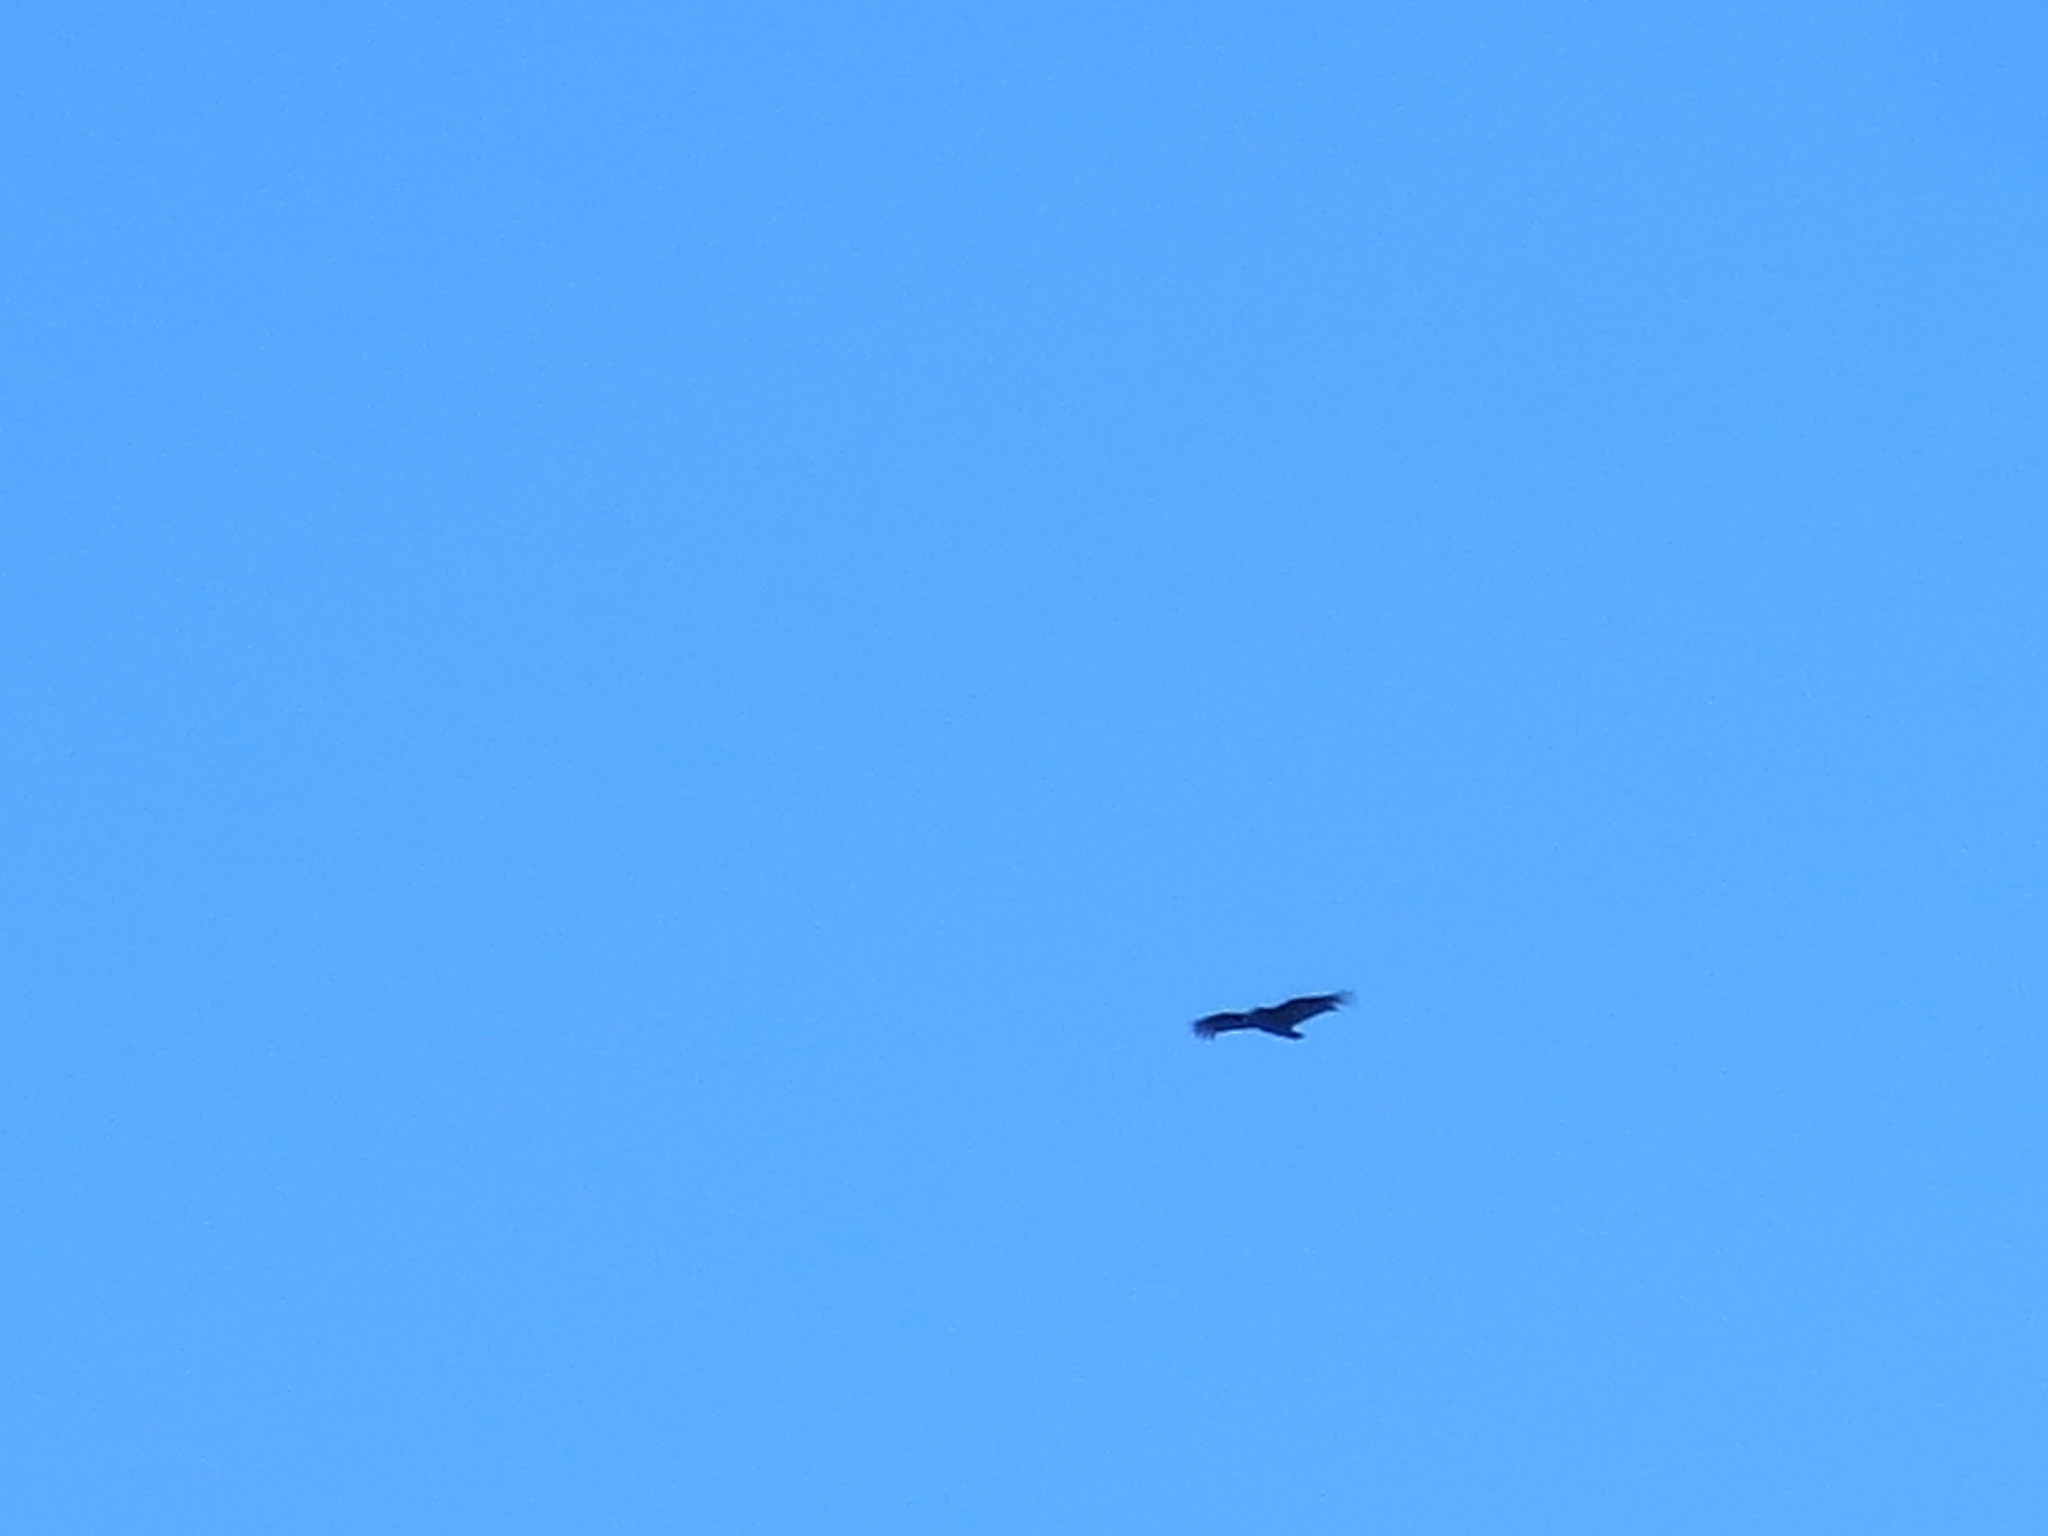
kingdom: Animalia
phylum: Chordata
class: Aves
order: Accipitriformes
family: Cathartidae
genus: Coragyps
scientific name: Coragyps atratus
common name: Black vulture
